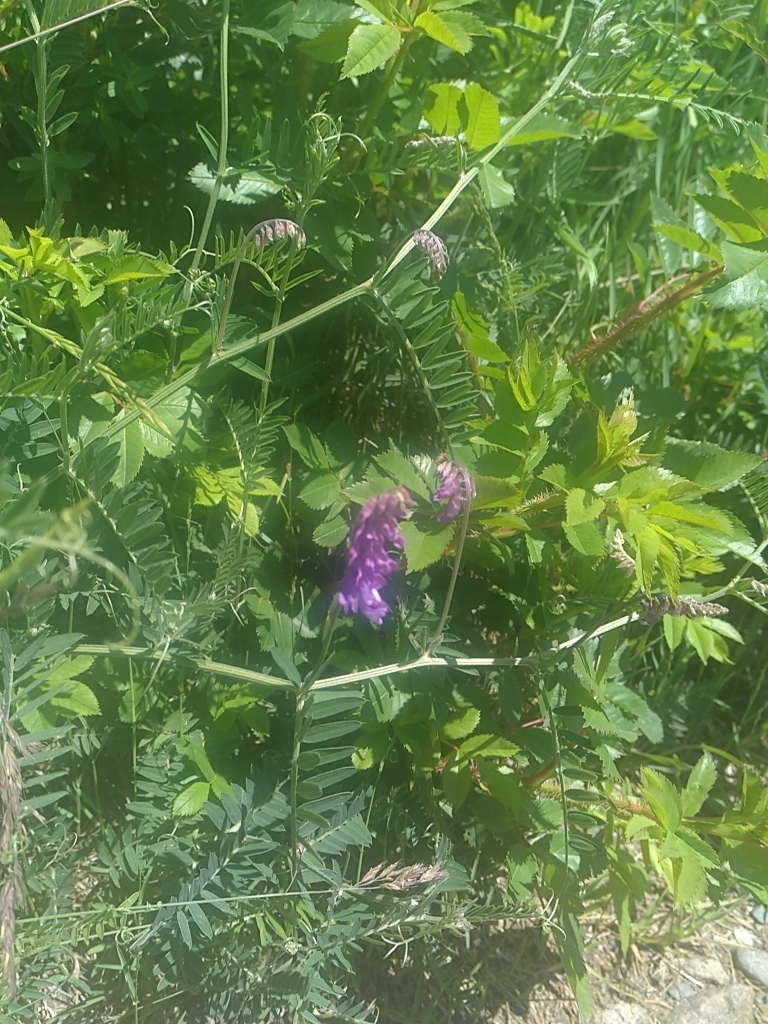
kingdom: Plantae
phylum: Tracheophyta
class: Magnoliopsida
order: Fabales
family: Fabaceae
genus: Vicia
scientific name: Vicia cracca
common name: Bird vetch
